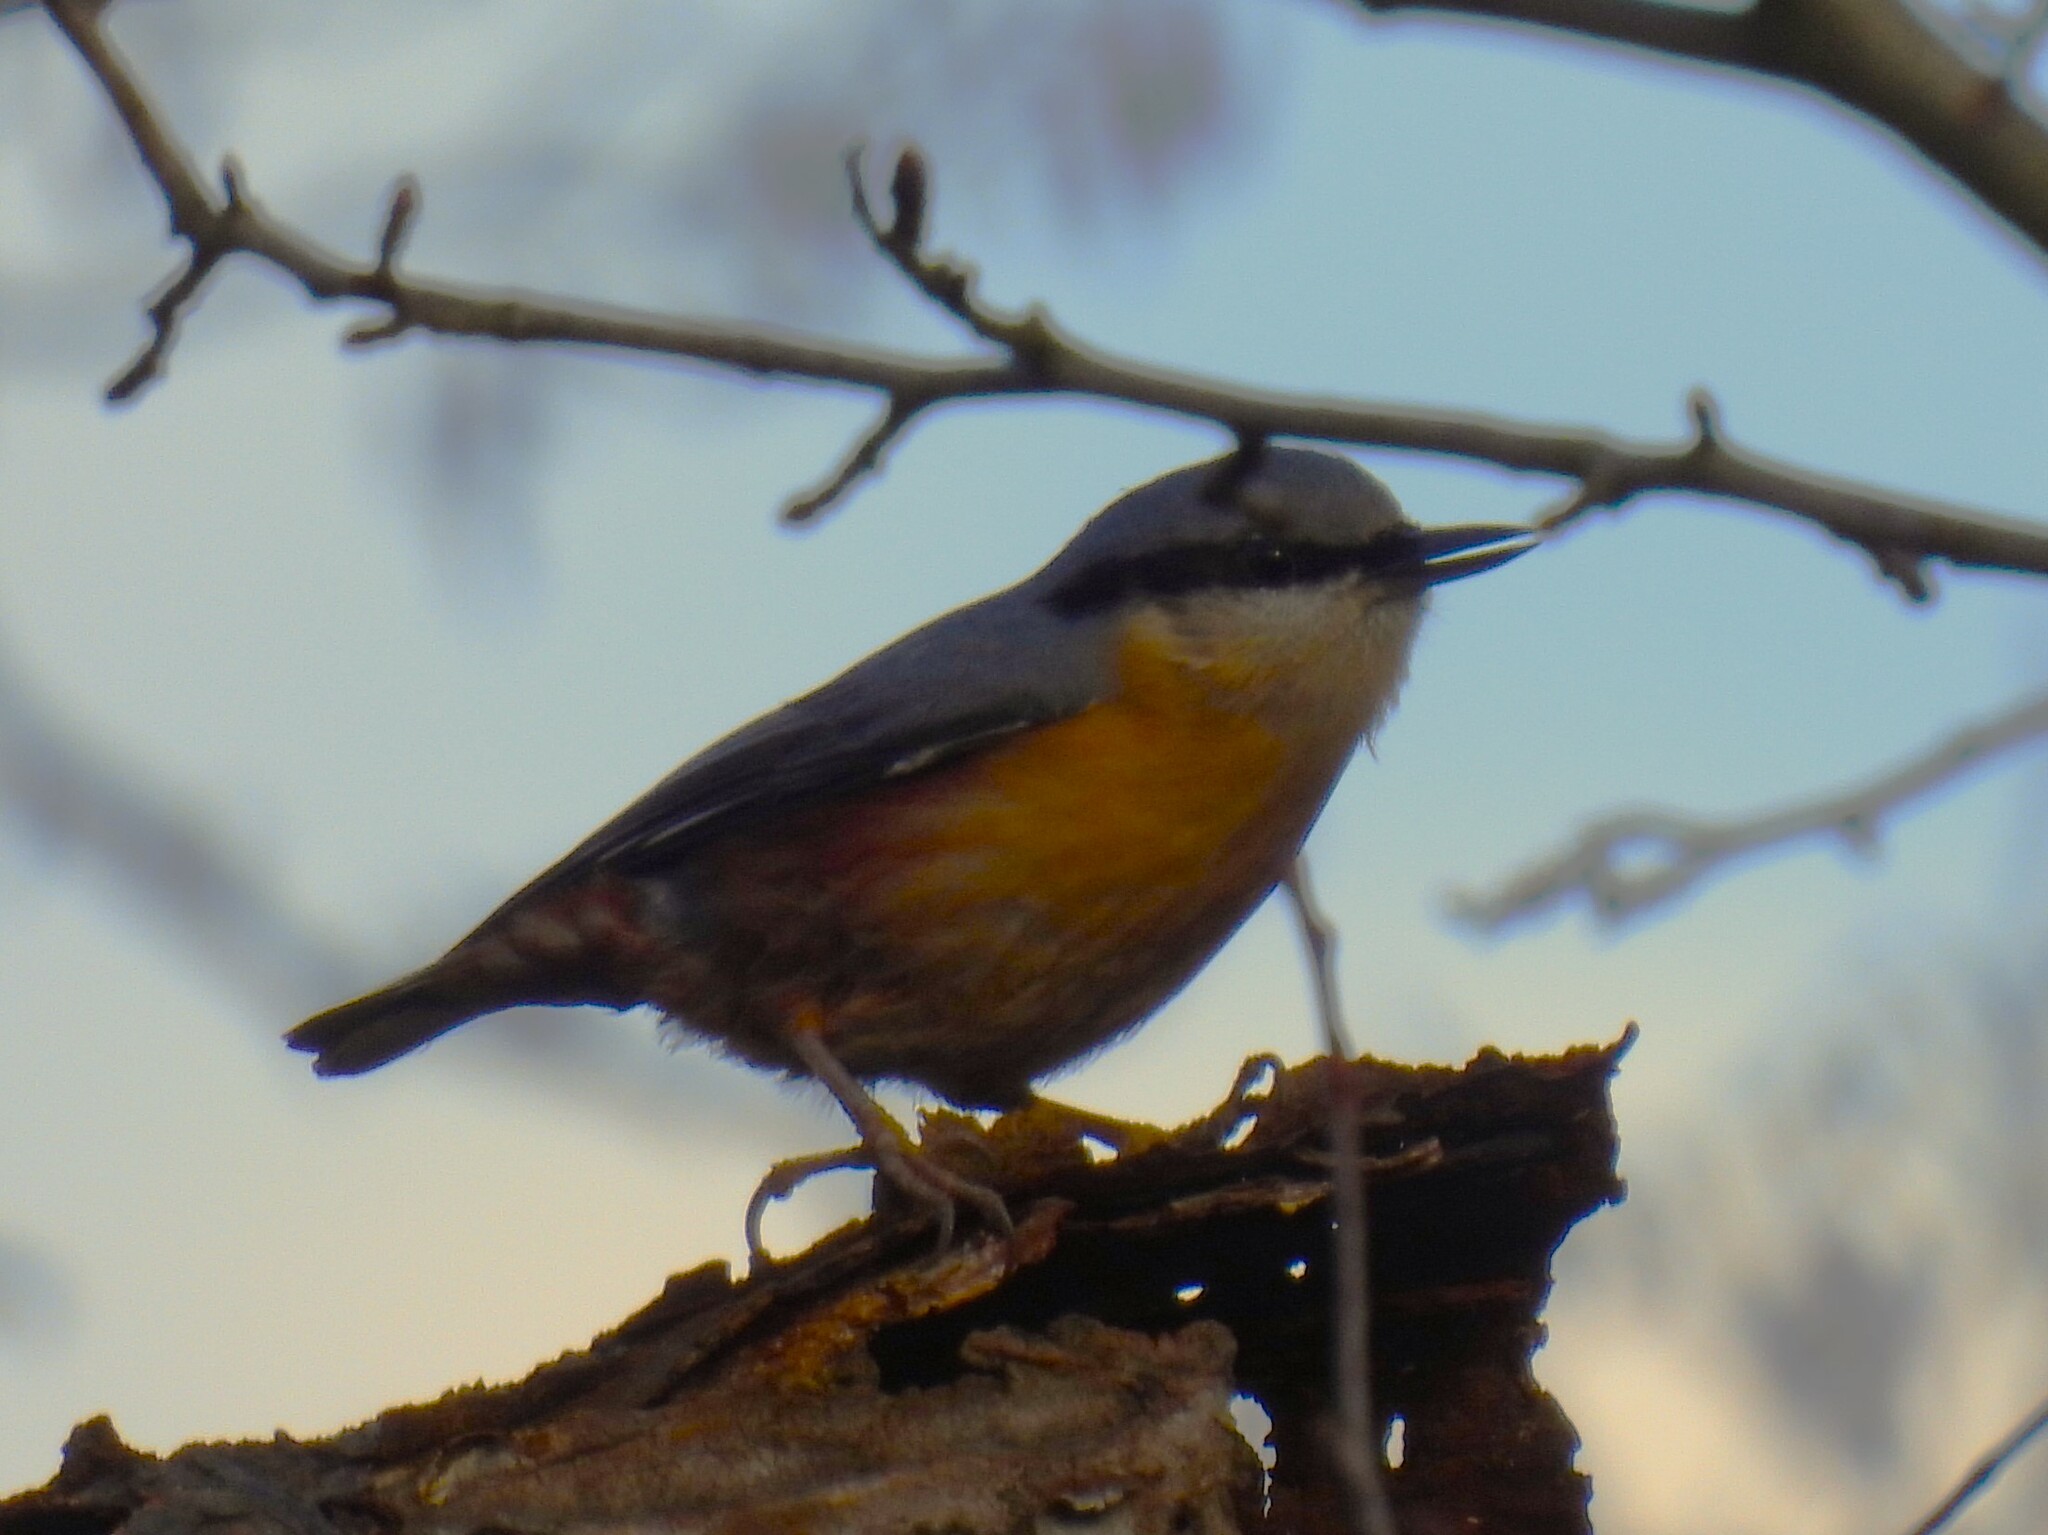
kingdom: Animalia
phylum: Chordata
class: Aves
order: Passeriformes
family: Sittidae
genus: Sitta
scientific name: Sitta europaea
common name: Eurasian nuthatch
